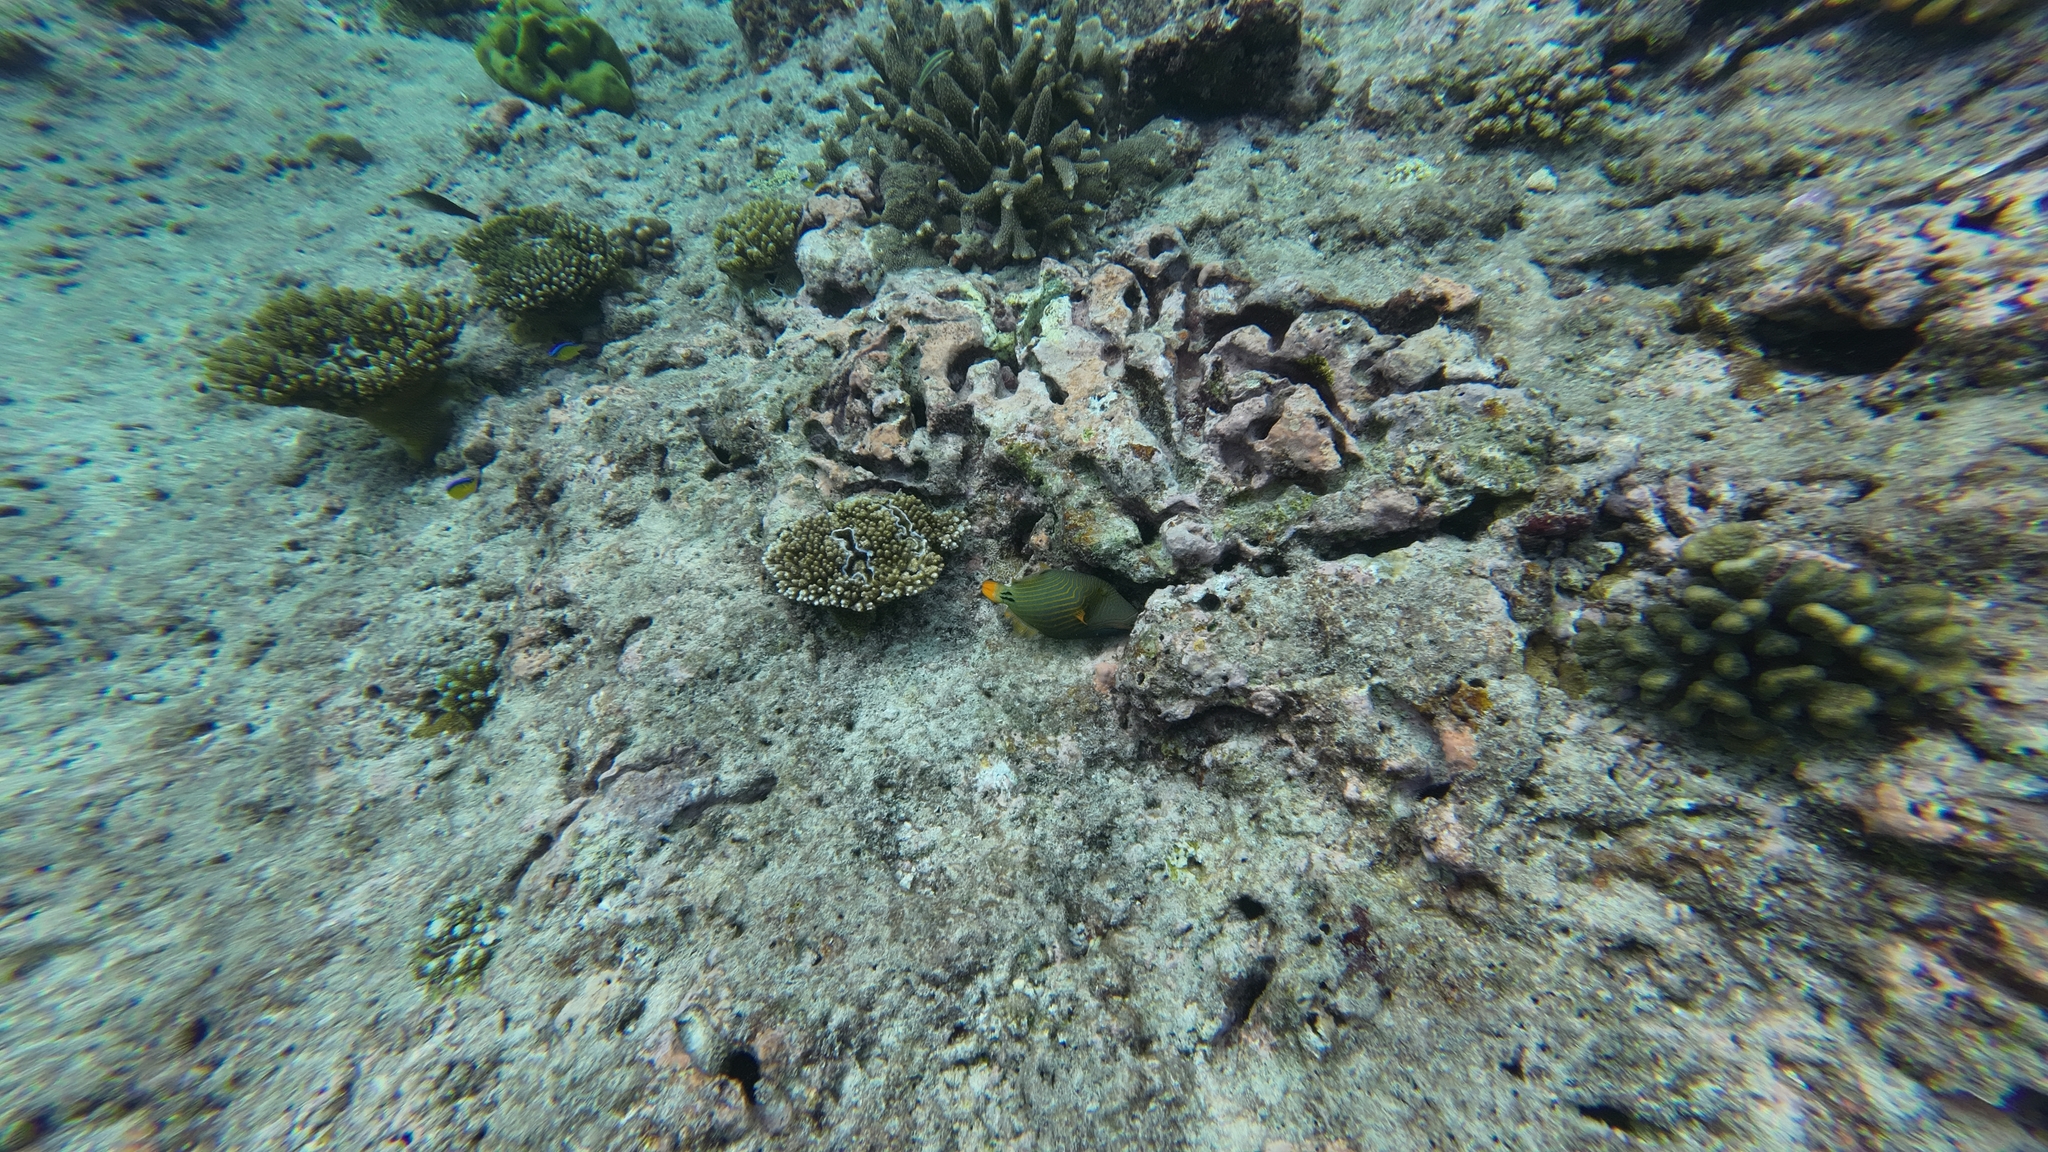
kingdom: Animalia
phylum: Chordata
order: Tetraodontiformes
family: Balistidae
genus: Balistapus
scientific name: Balistapus undulatus
